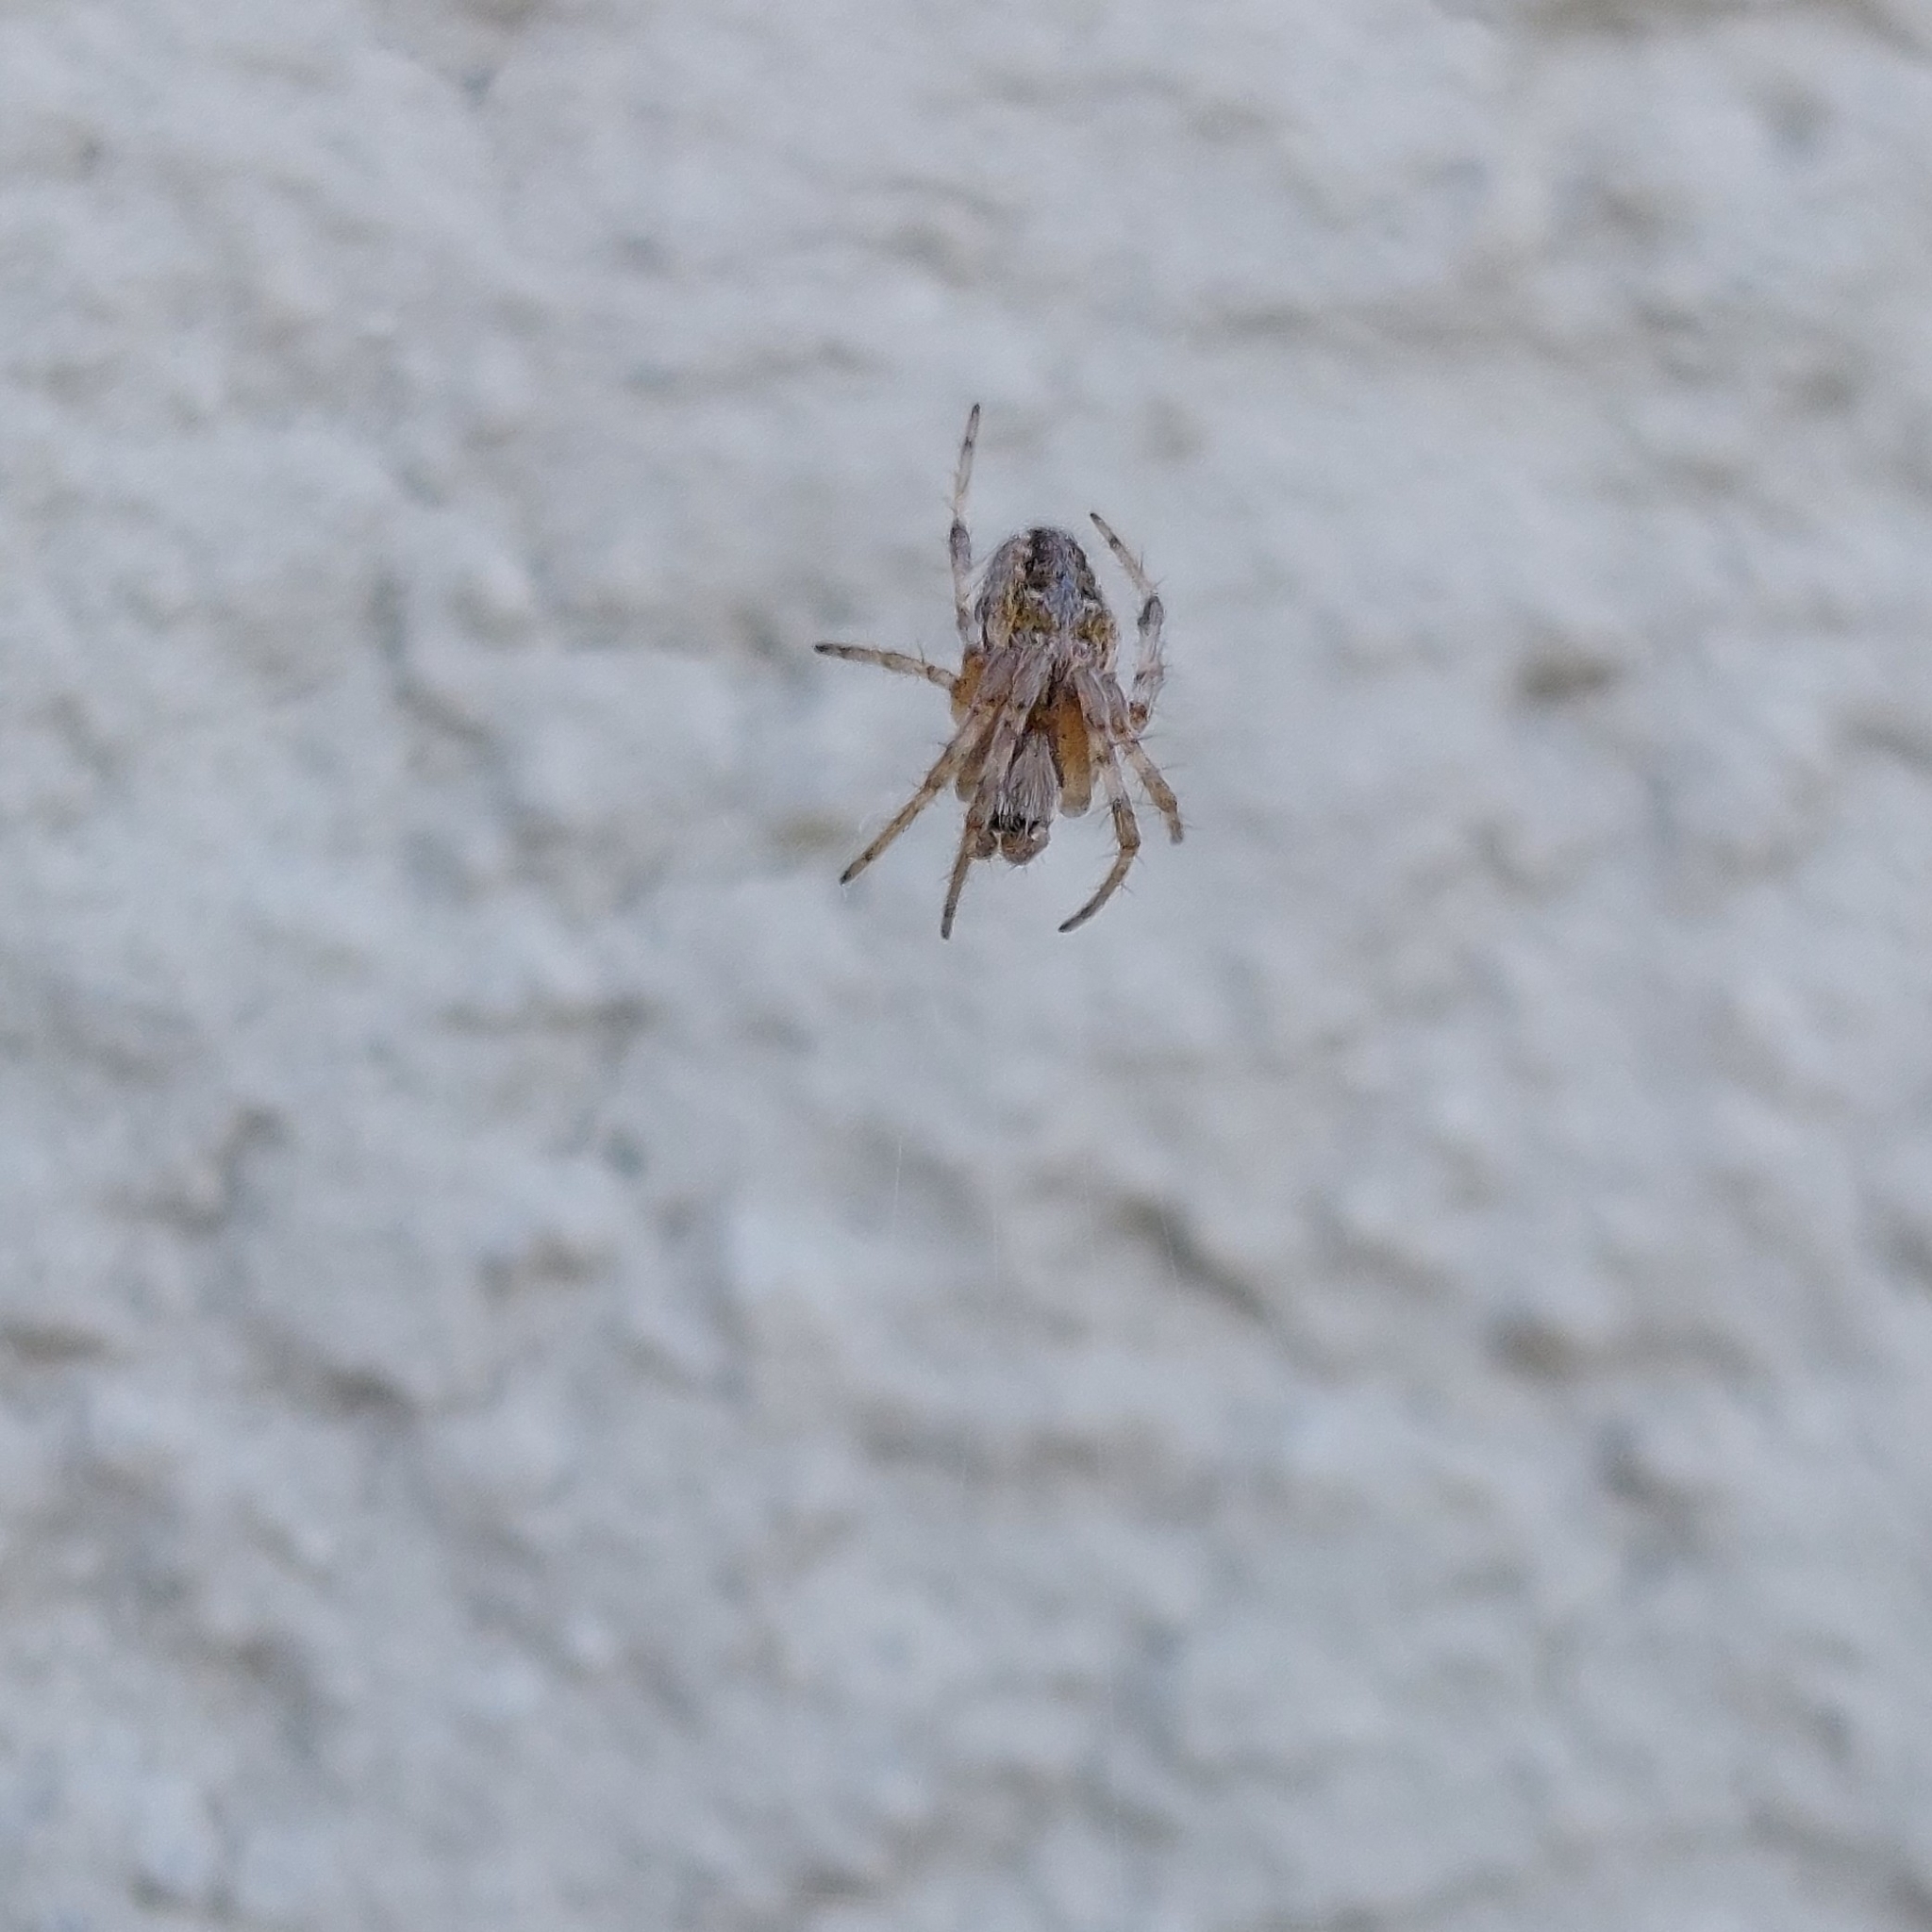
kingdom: Animalia
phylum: Arthropoda
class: Arachnida
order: Araneae
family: Araneidae
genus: Metepeira
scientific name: Metepeira
